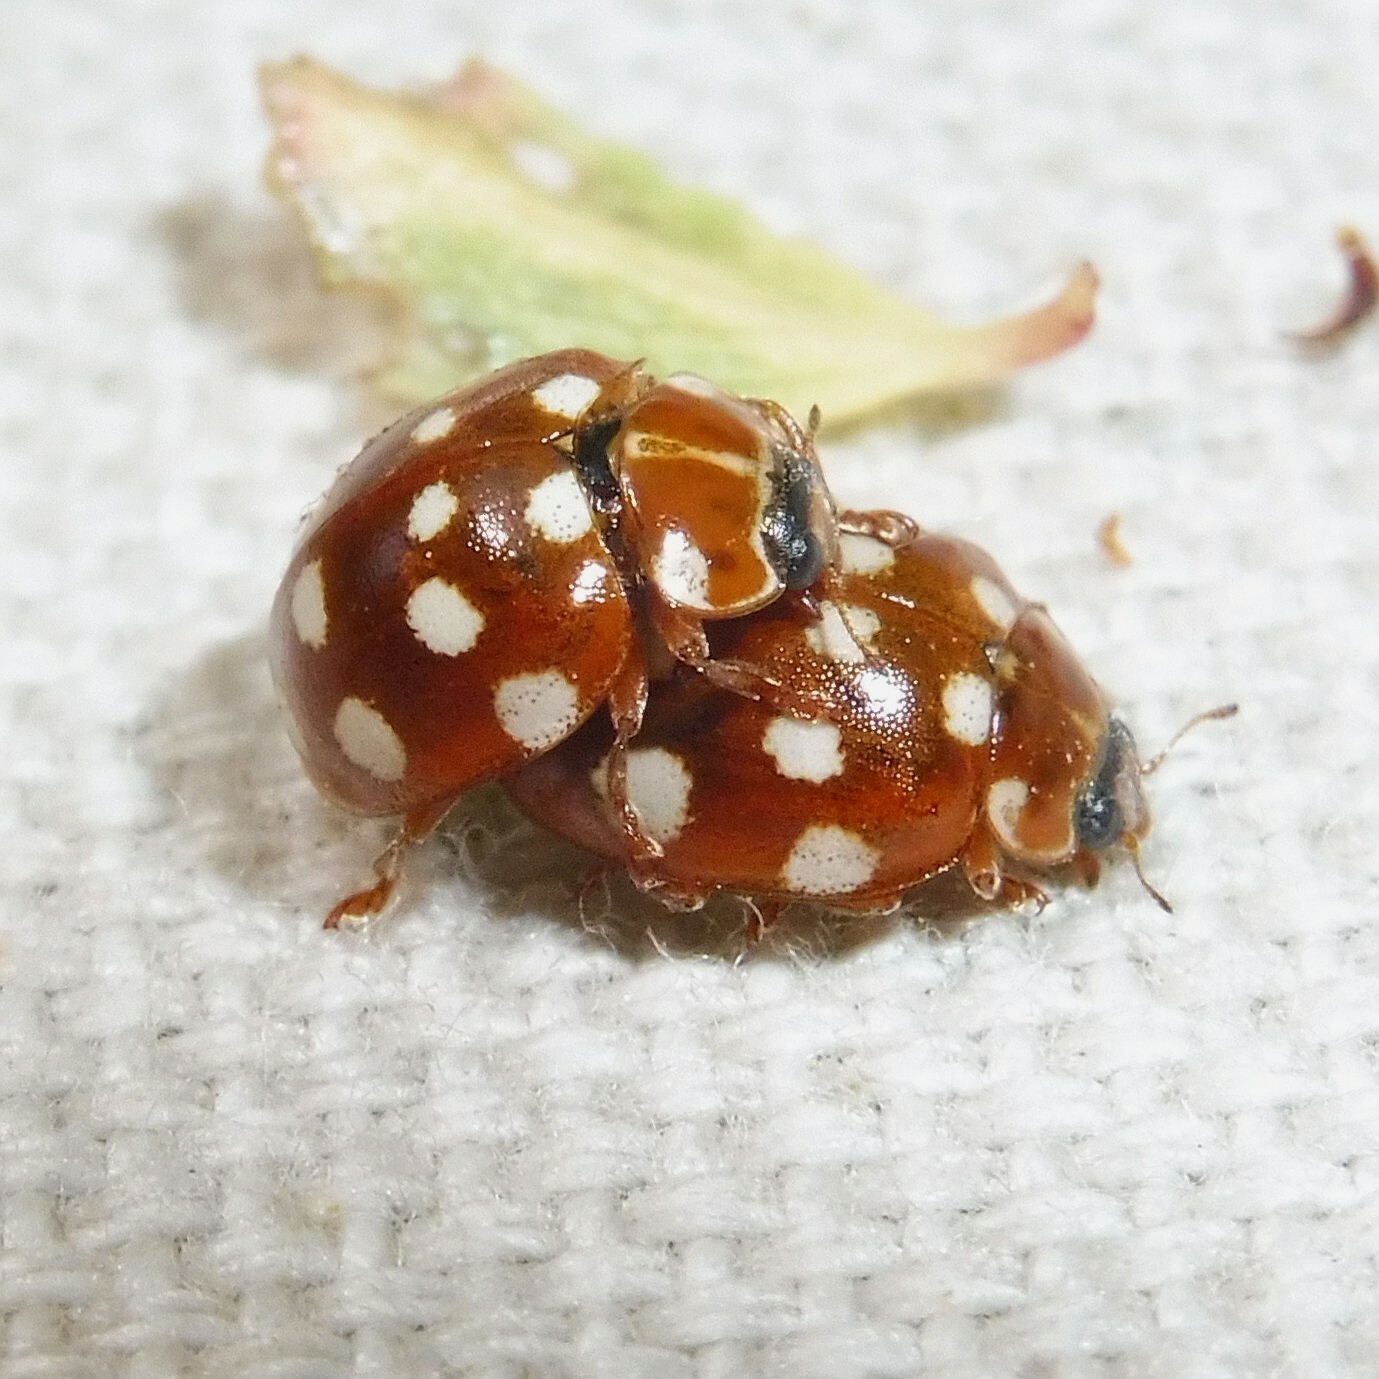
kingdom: Animalia
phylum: Arthropoda
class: Insecta
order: Coleoptera
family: Coccinellidae
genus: Calvia
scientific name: Calvia quatuordecimguttata
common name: Cream-spot ladybird
